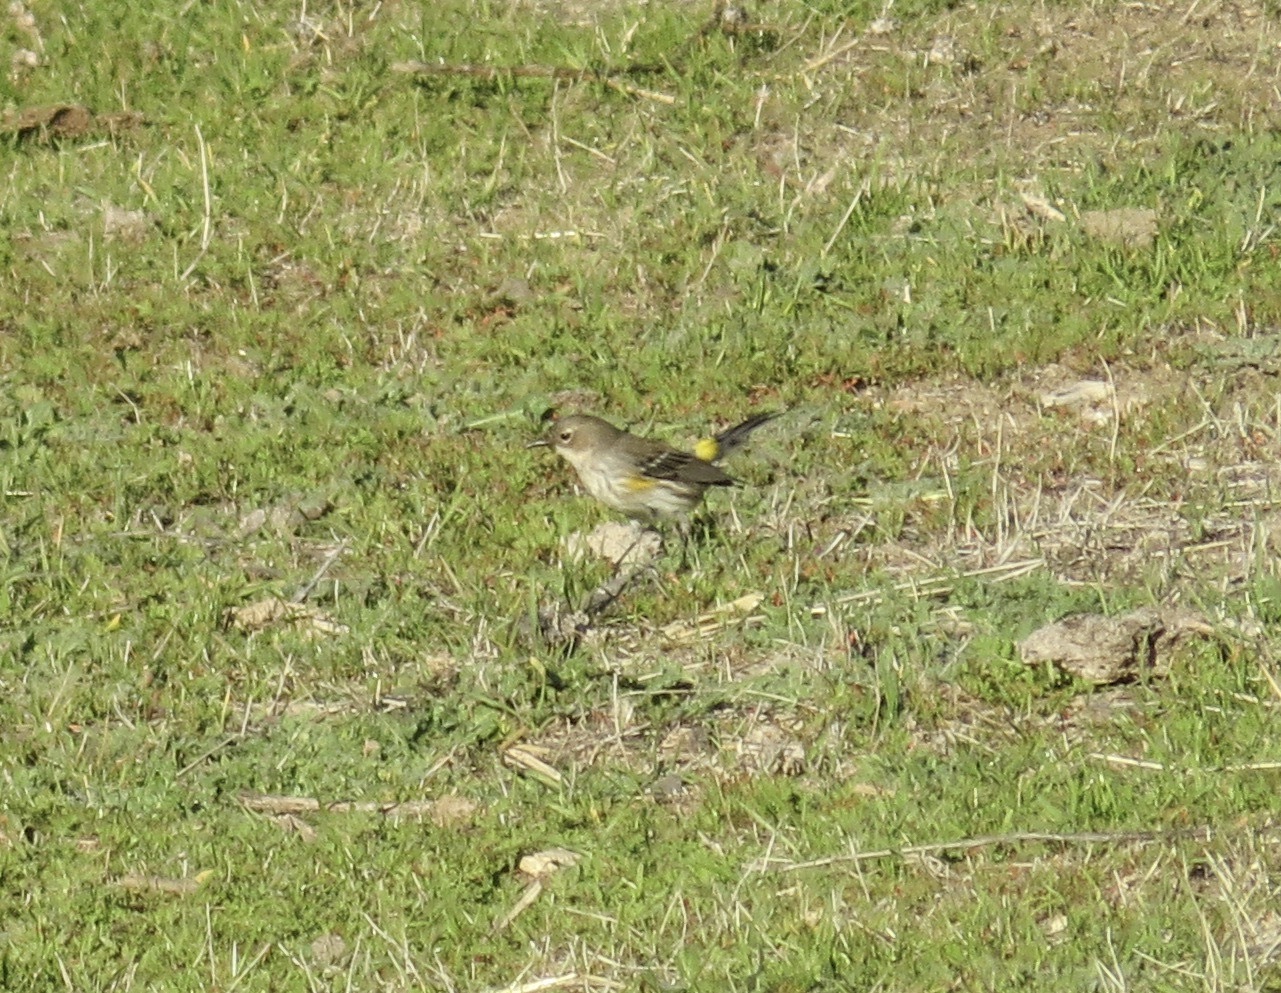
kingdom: Animalia
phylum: Chordata
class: Aves
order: Passeriformes
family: Parulidae
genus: Setophaga
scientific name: Setophaga coronata
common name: Myrtle warbler
